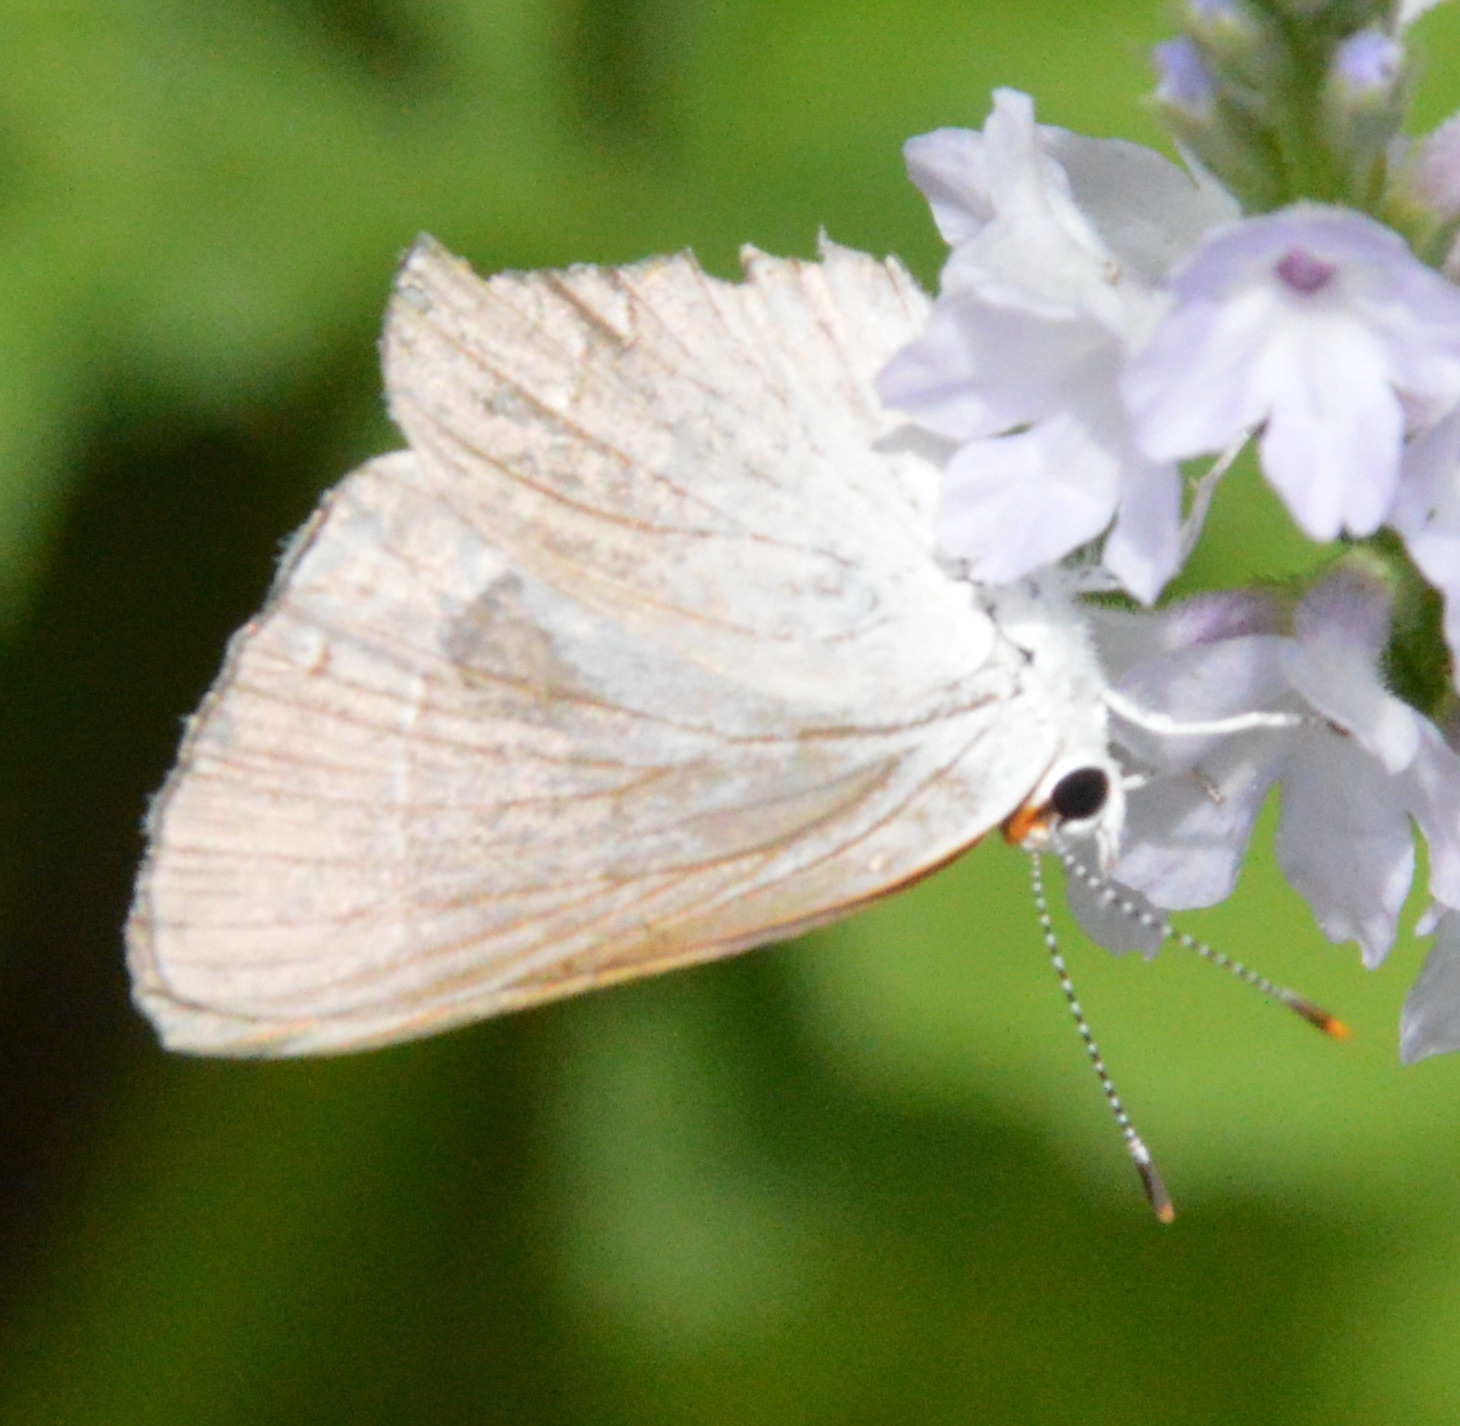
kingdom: Animalia
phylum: Arthropoda
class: Insecta
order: Lepidoptera
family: Lycaenidae
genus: Strymon
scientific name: Strymon melinus
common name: Gray hairstreak
